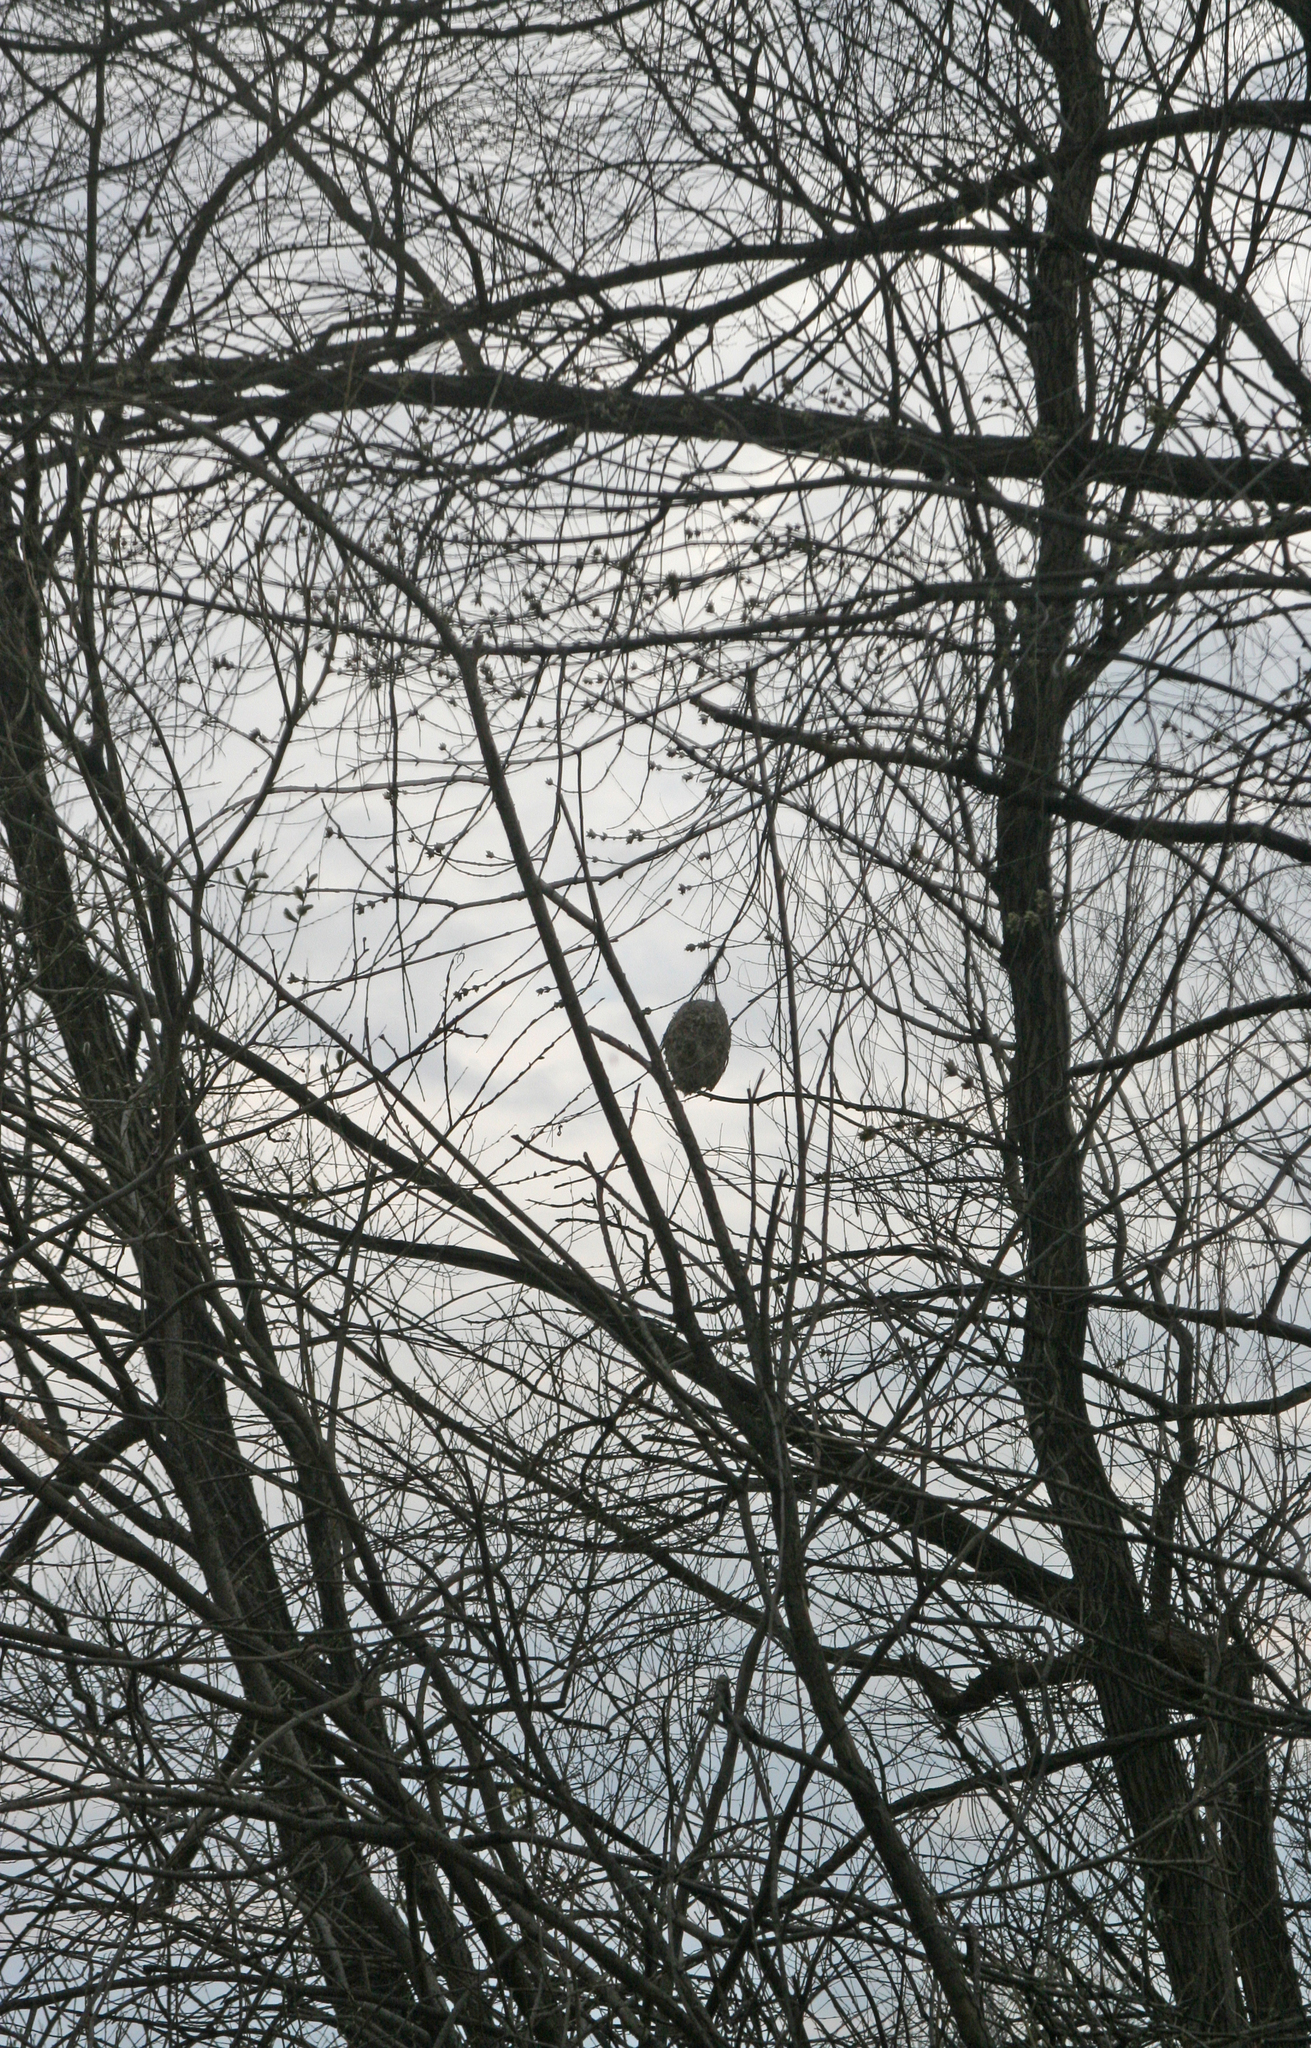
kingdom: Animalia
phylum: Chordata
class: Aves
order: Passeriformes
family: Remizidae
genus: Remiz
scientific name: Remiz pendulinus
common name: Eurasian penduline tit
